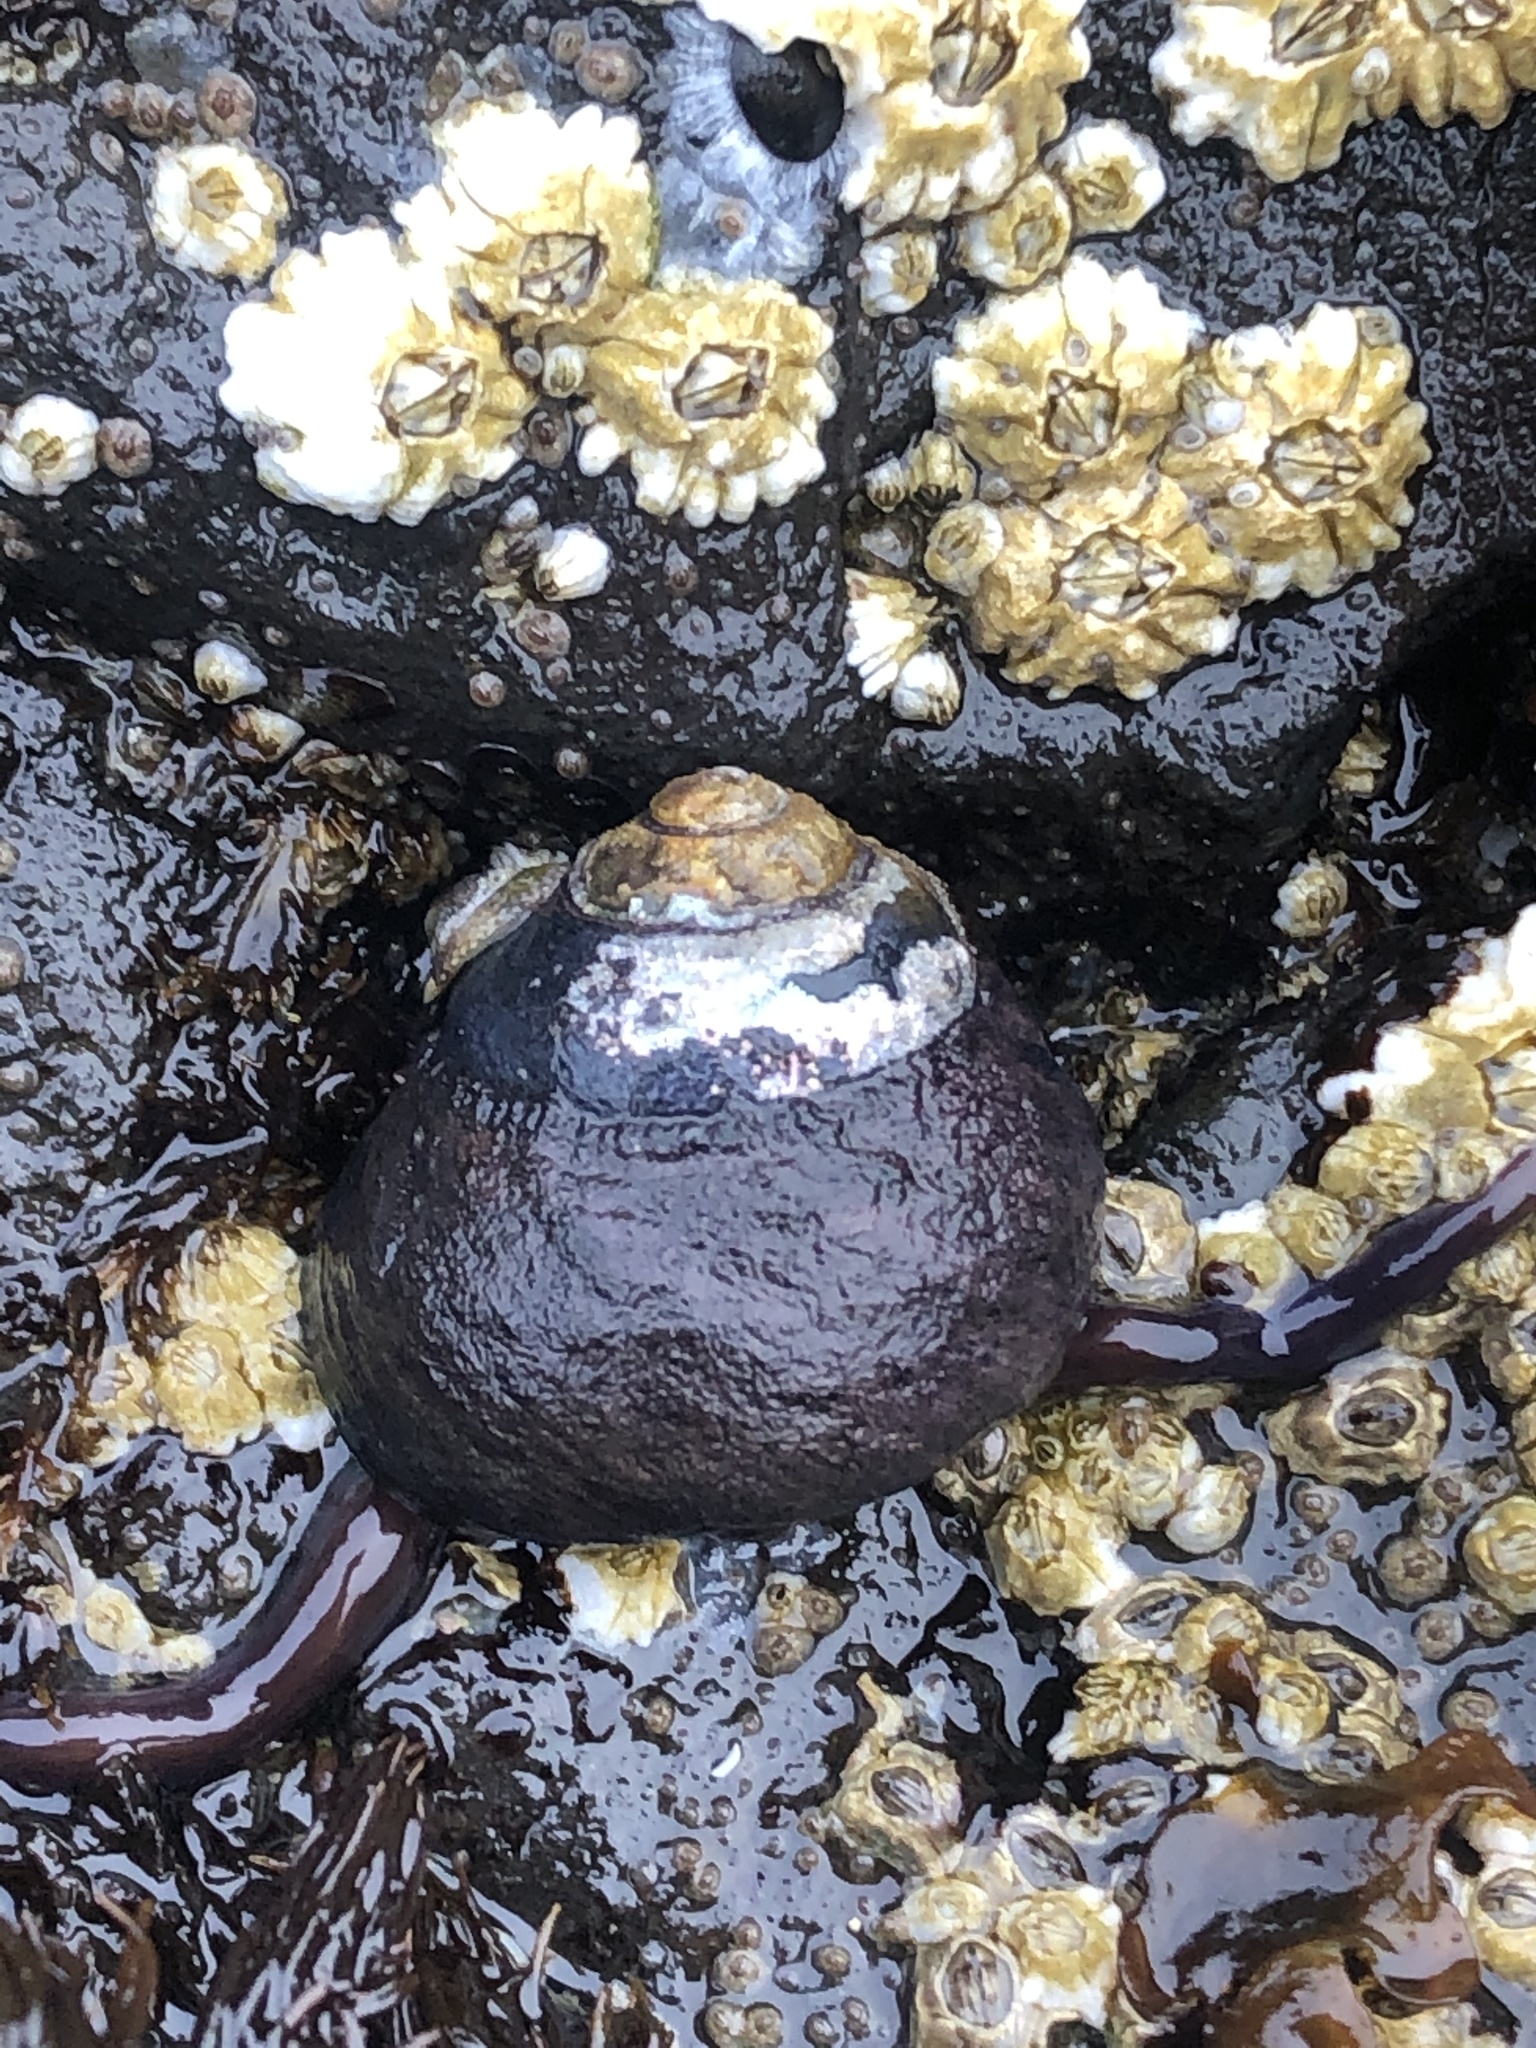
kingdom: Animalia
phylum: Mollusca
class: Gastropoda
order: Trochida
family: Tegulidae
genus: Tegula
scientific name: Tegula funebralis
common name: Black tegula
